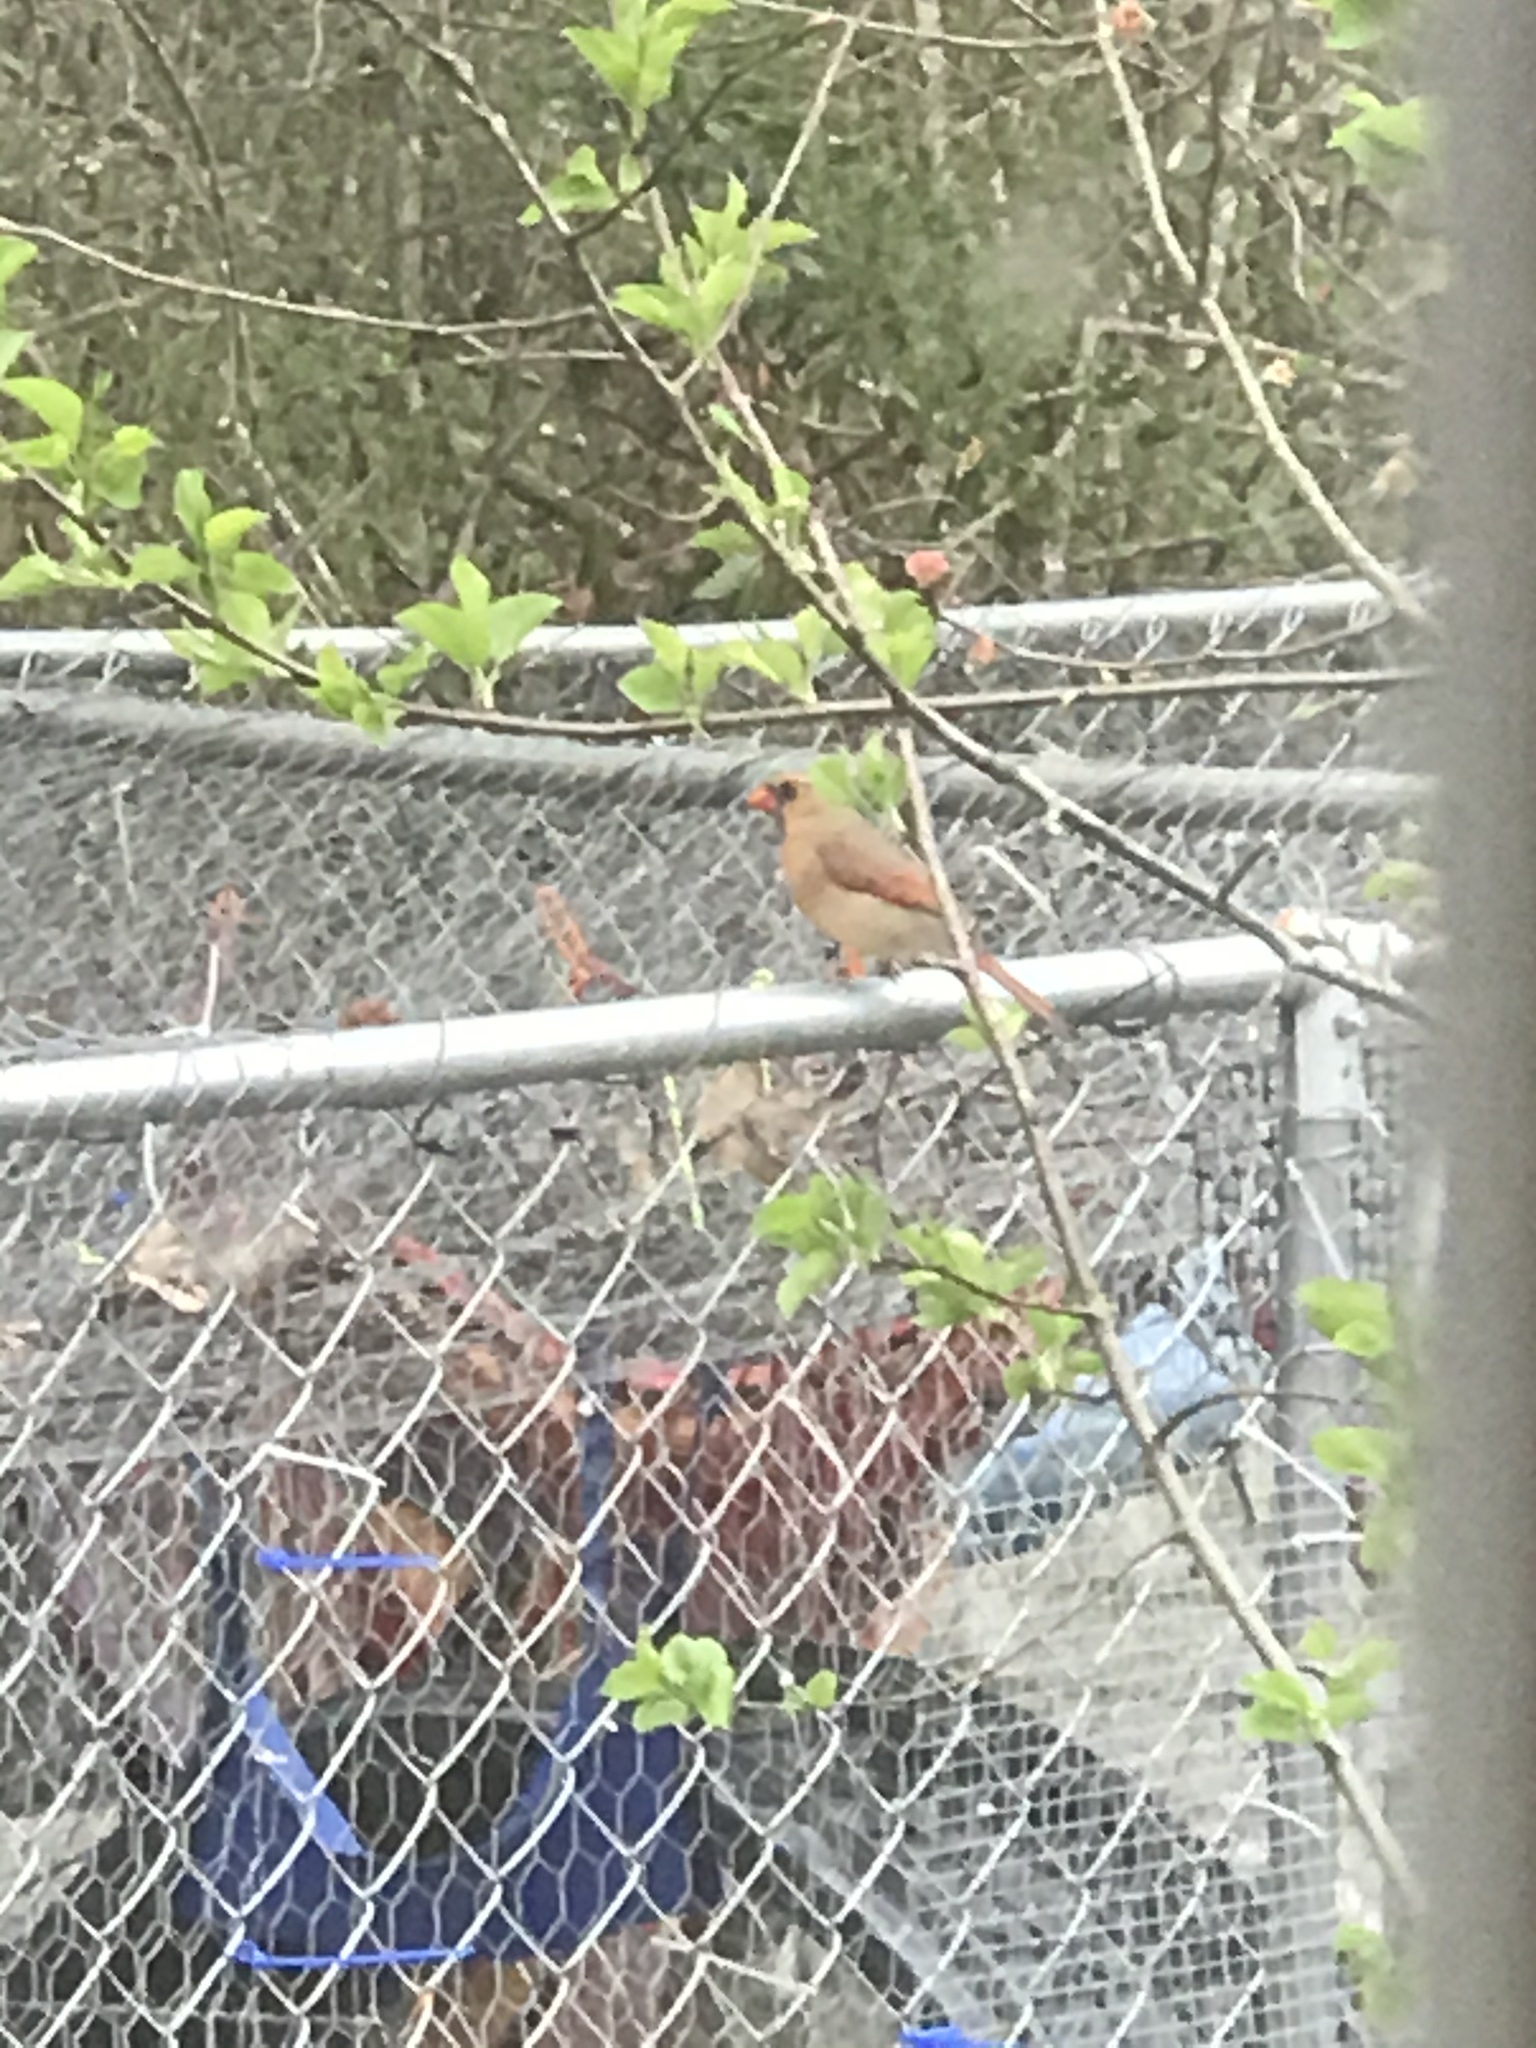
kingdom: Animalia
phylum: Chordata
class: Aves
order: Passeriformes
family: Cardinalidae
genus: Cardinalis
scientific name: Cardinalis cardinalis
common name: Northern cardinal
